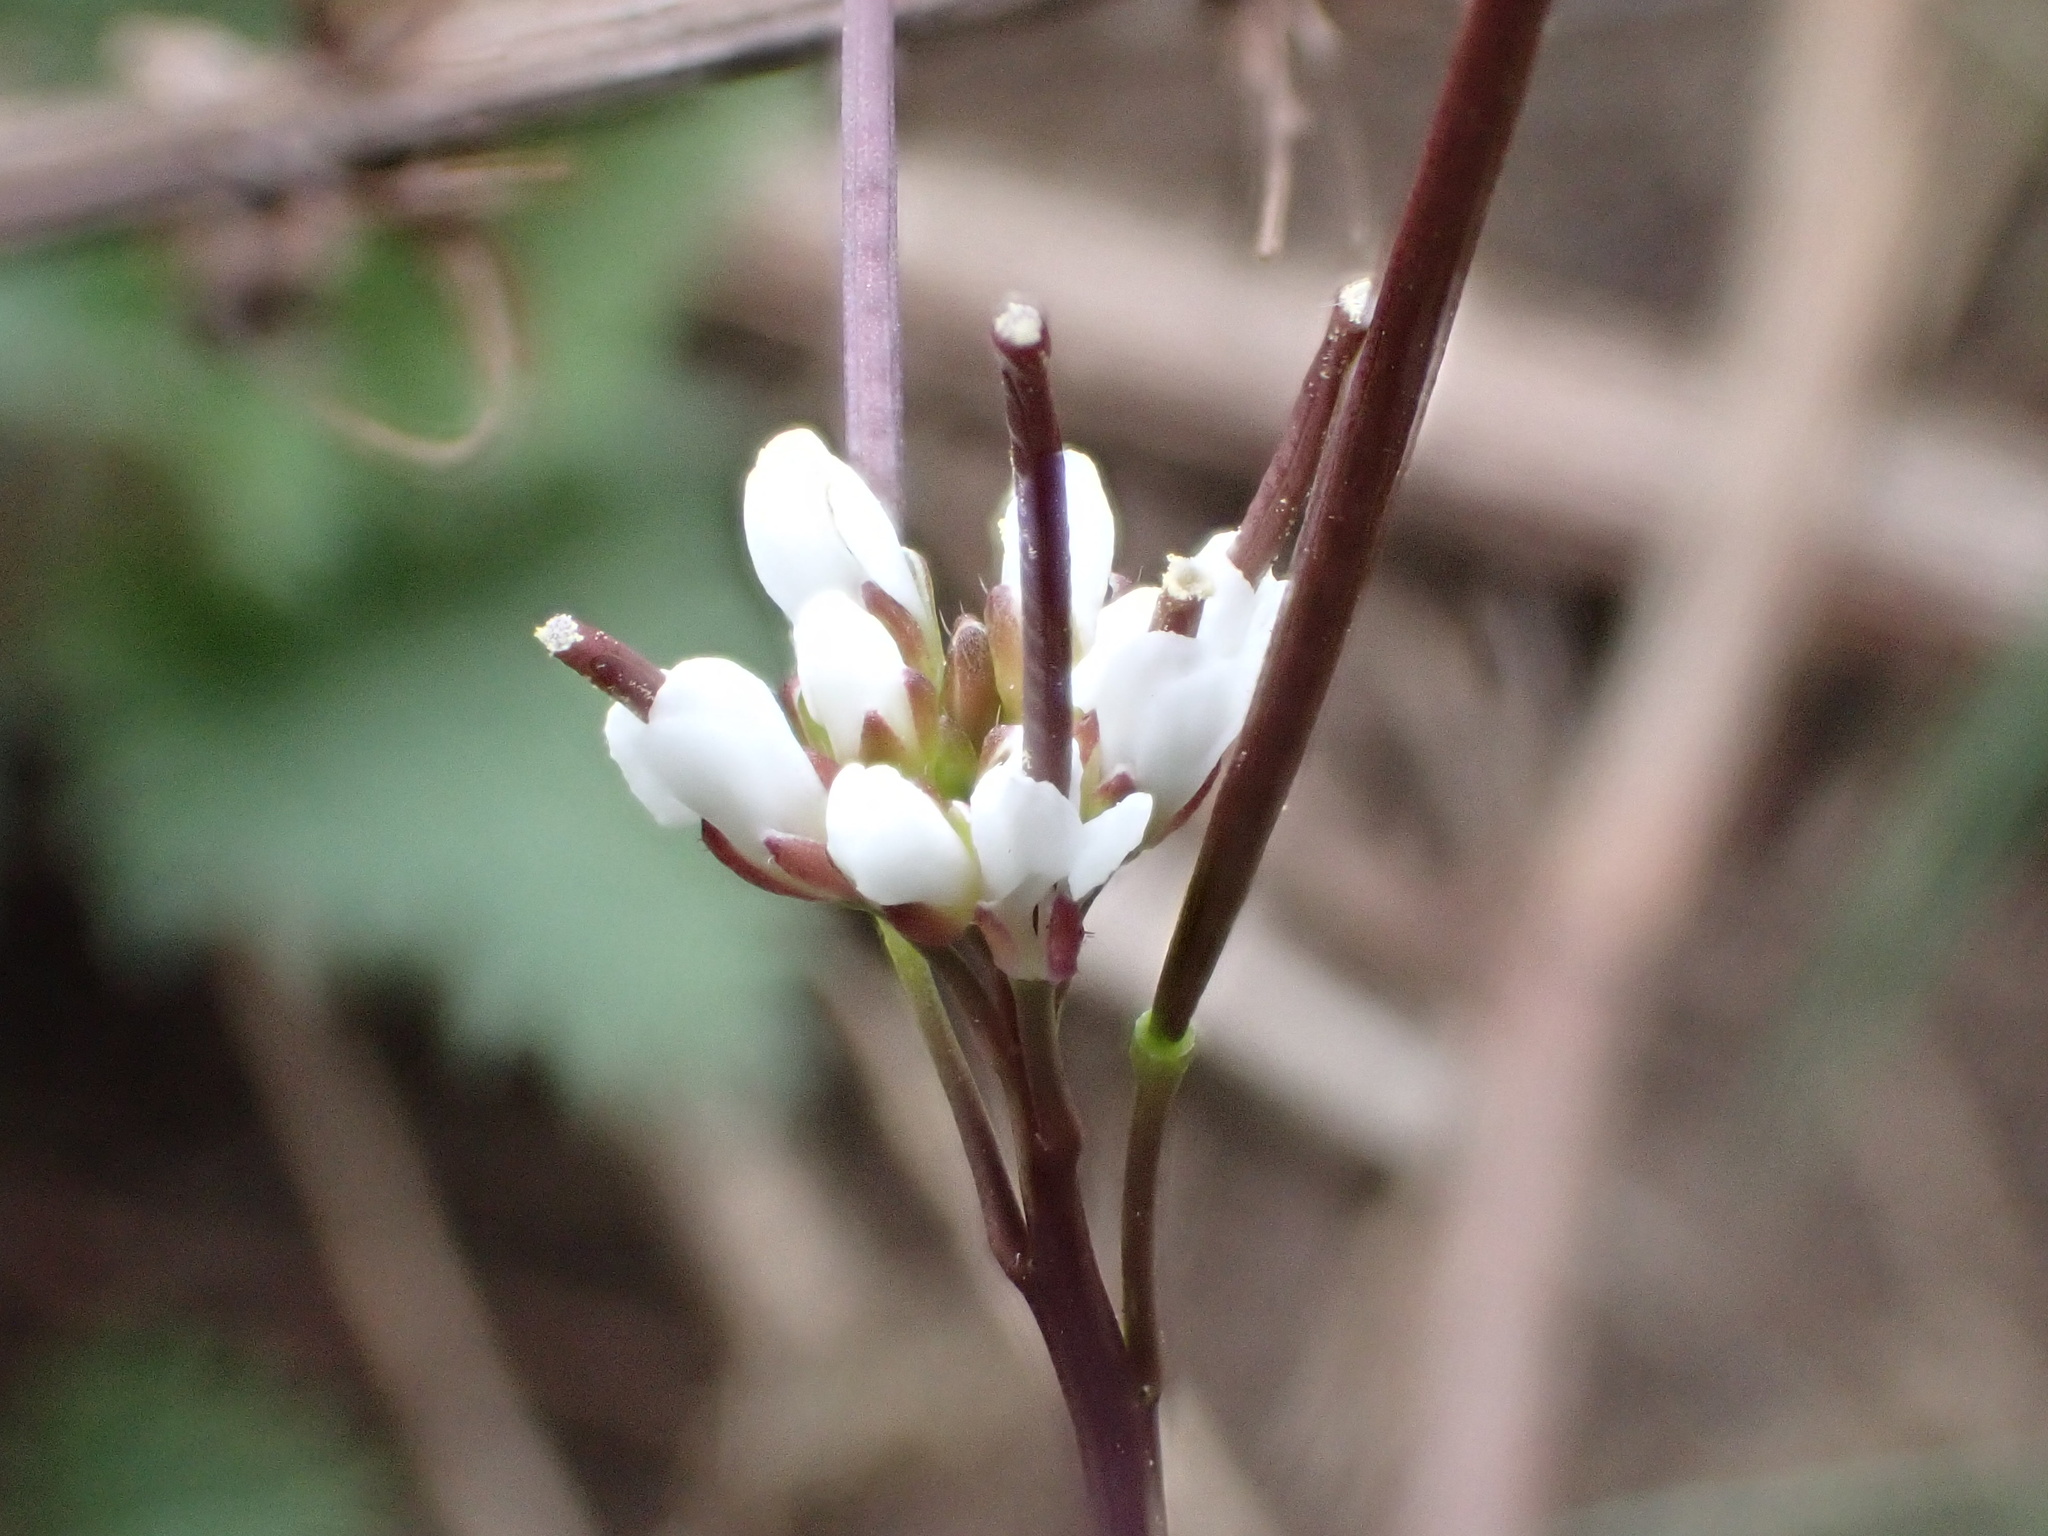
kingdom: Plantae
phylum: Tracheophyta
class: Magnoliopsida
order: Brassicales
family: Brassicaceae
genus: Cardamine
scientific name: Cardamine hirsuta
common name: Hairy bittercress
